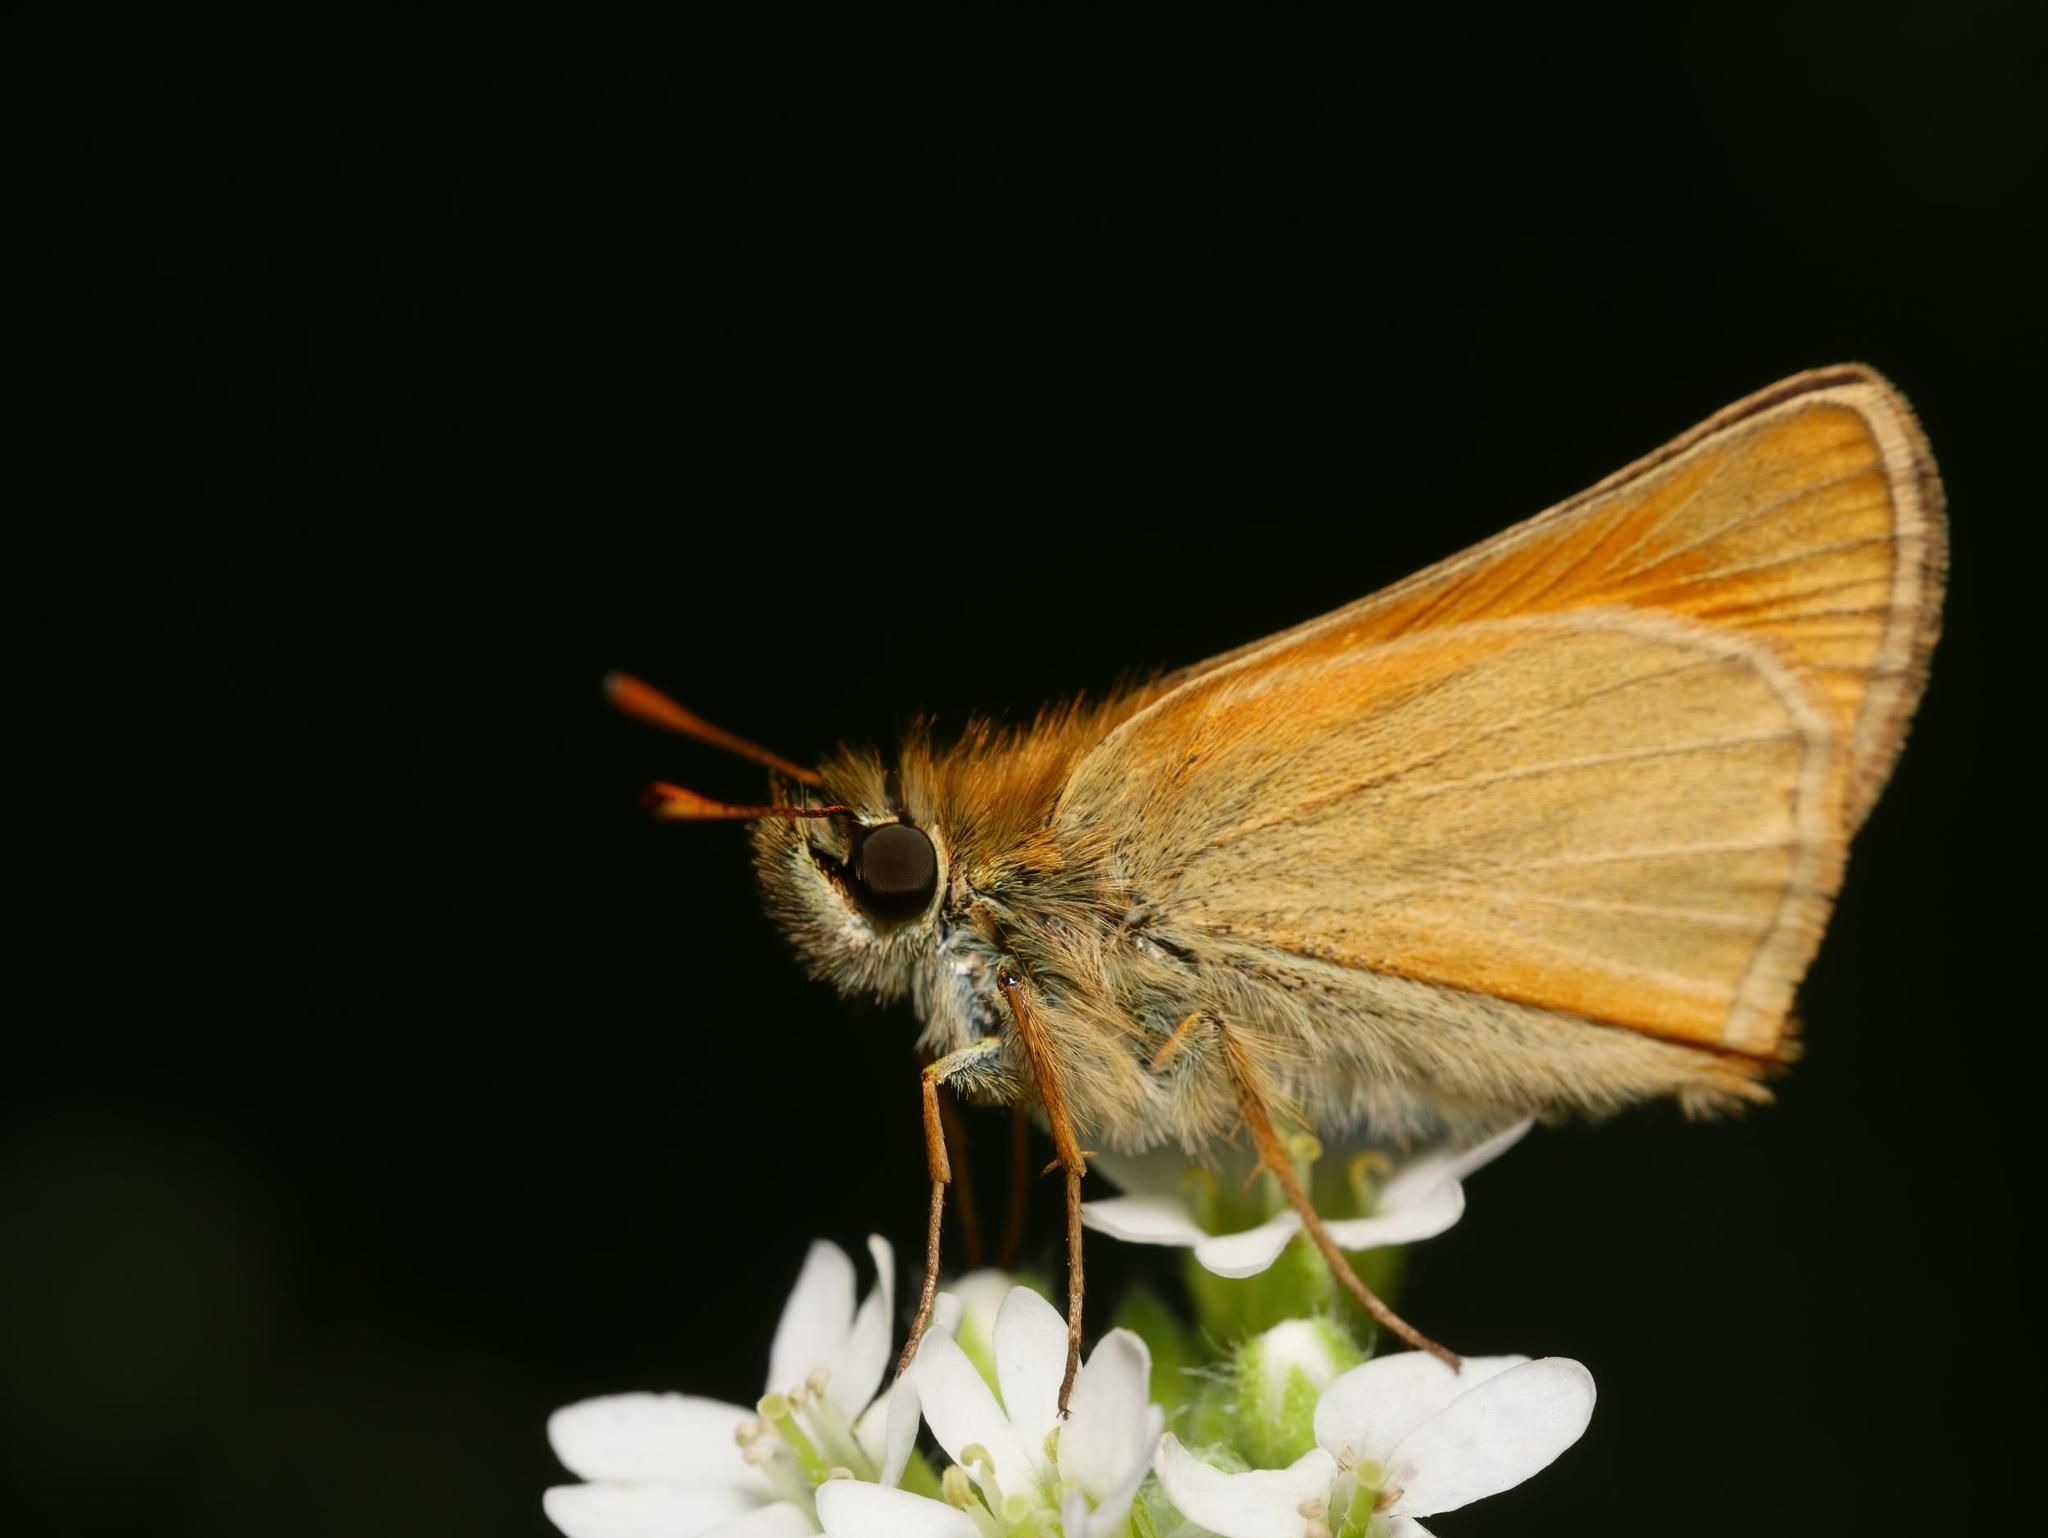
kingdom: Animalia
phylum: Arthropoda
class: Insecta
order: Lepidoptera
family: Hesperiidae
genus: Thymelicus
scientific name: Thymelicus sylvestris
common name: Small skipper
